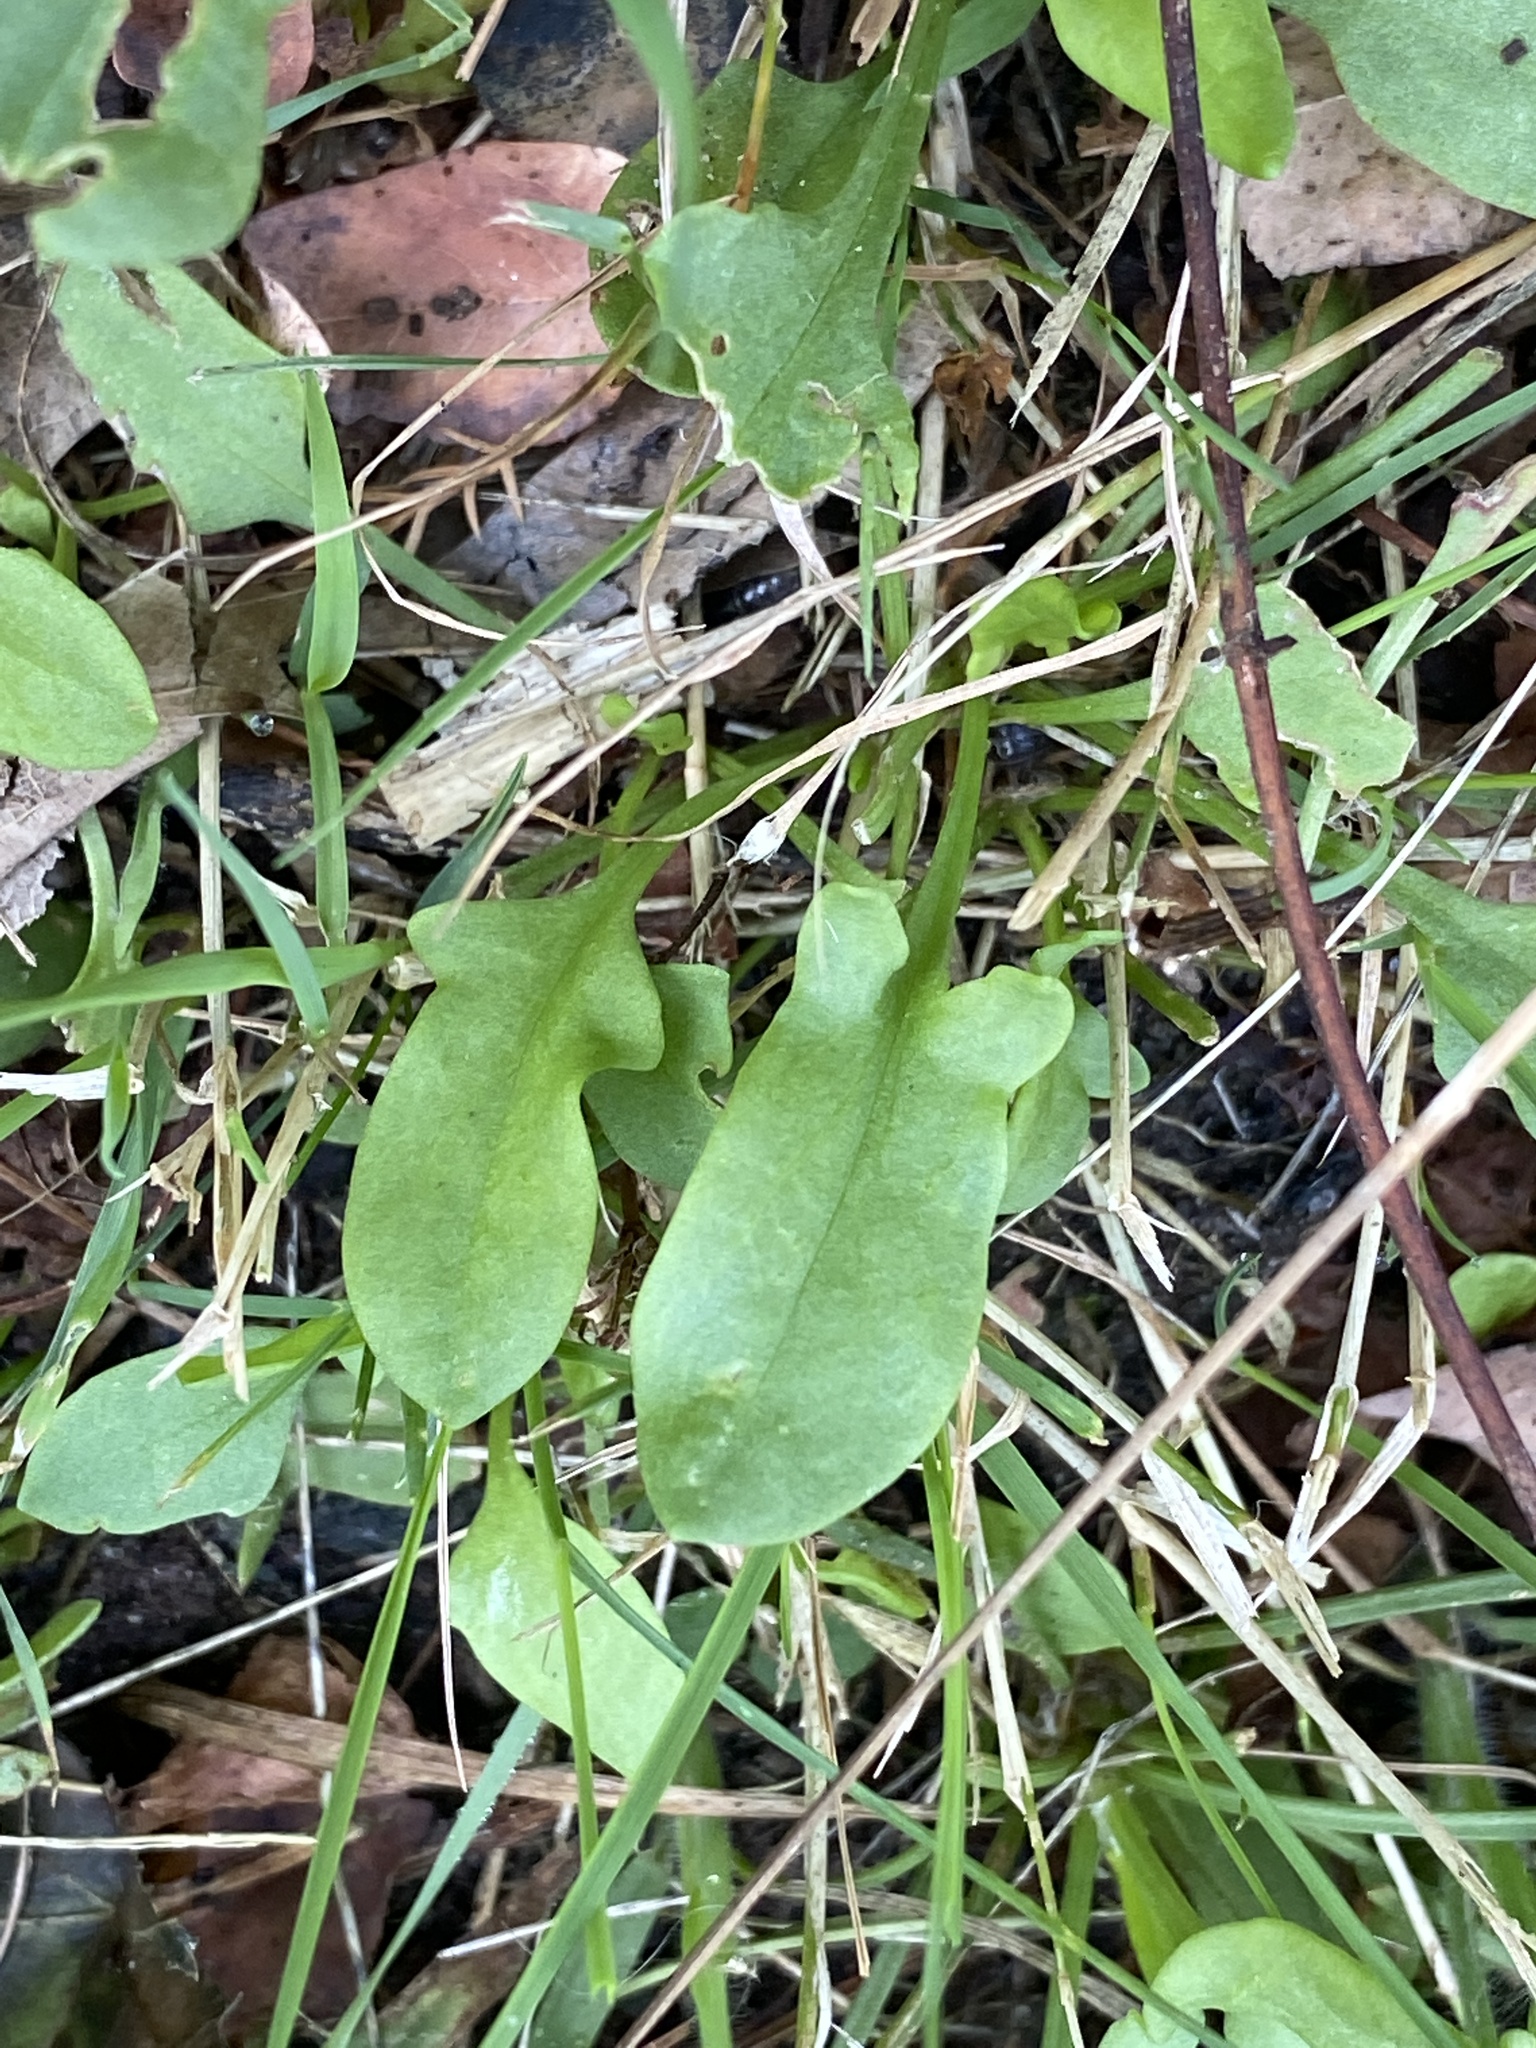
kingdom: Plantae
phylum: Tracheophyta
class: Magnoliopsida
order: Caryophyllales
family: Polygonaceae
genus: Rumex
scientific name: Rumex acetosella
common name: Common sheep sorrel
